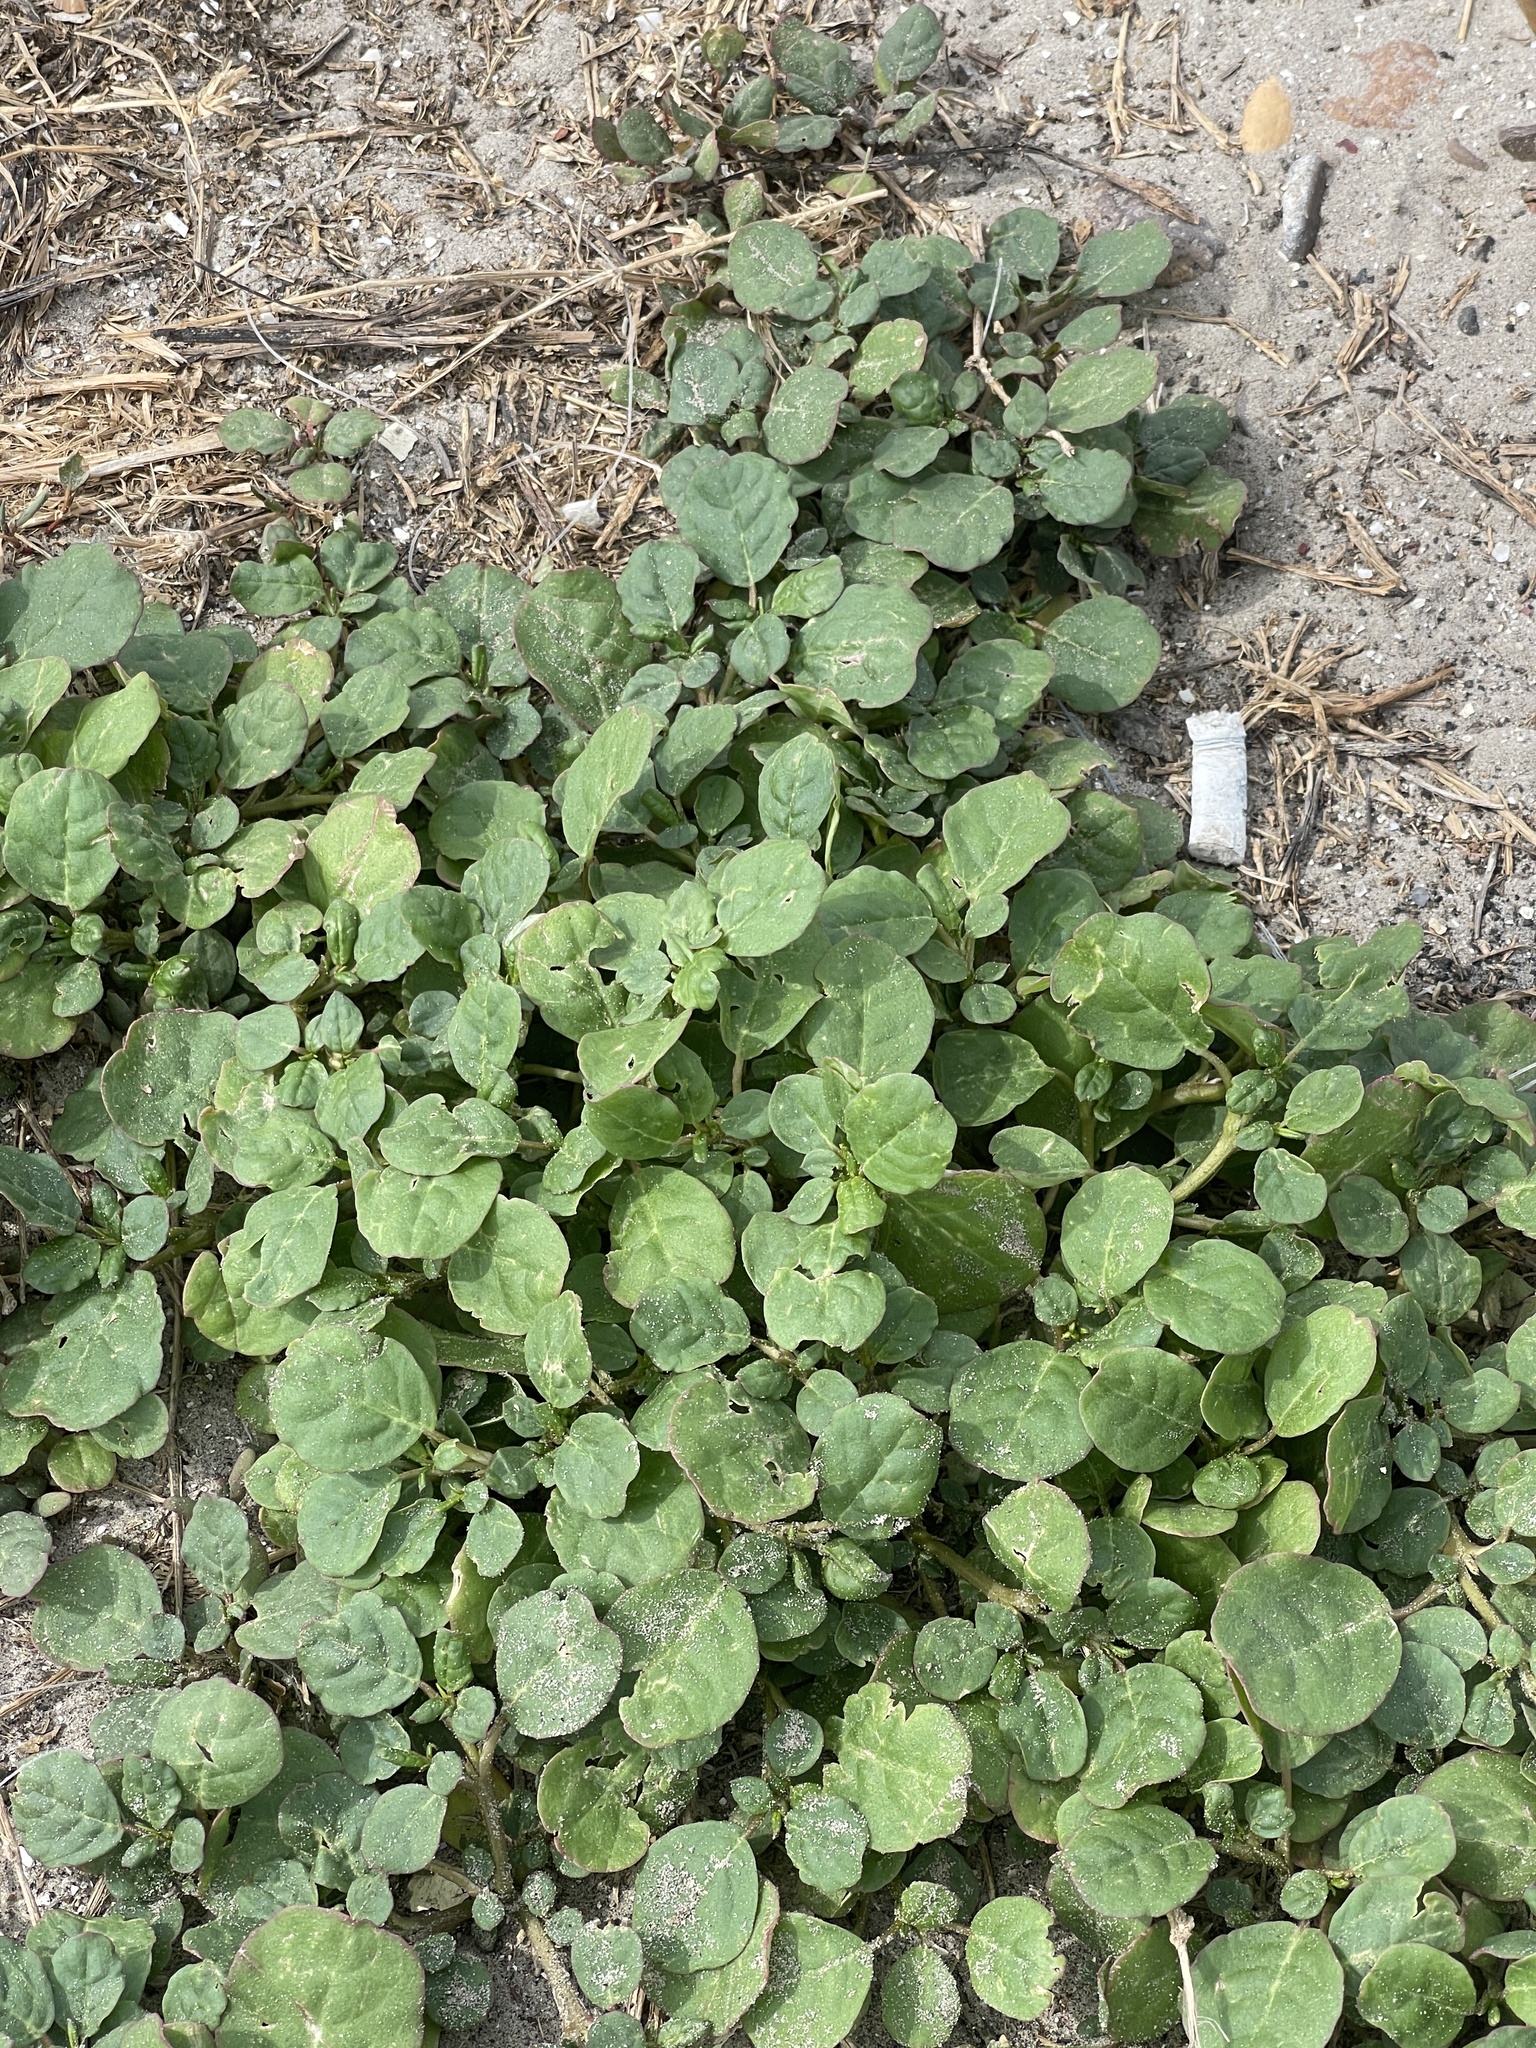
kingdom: Plantae
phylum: Tracheophyta
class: Magnoliopsida
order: Caryophyllales
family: Aizoaceae
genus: Trianthema
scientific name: Trianthema portulacastrum
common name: Desert horsepurslane
